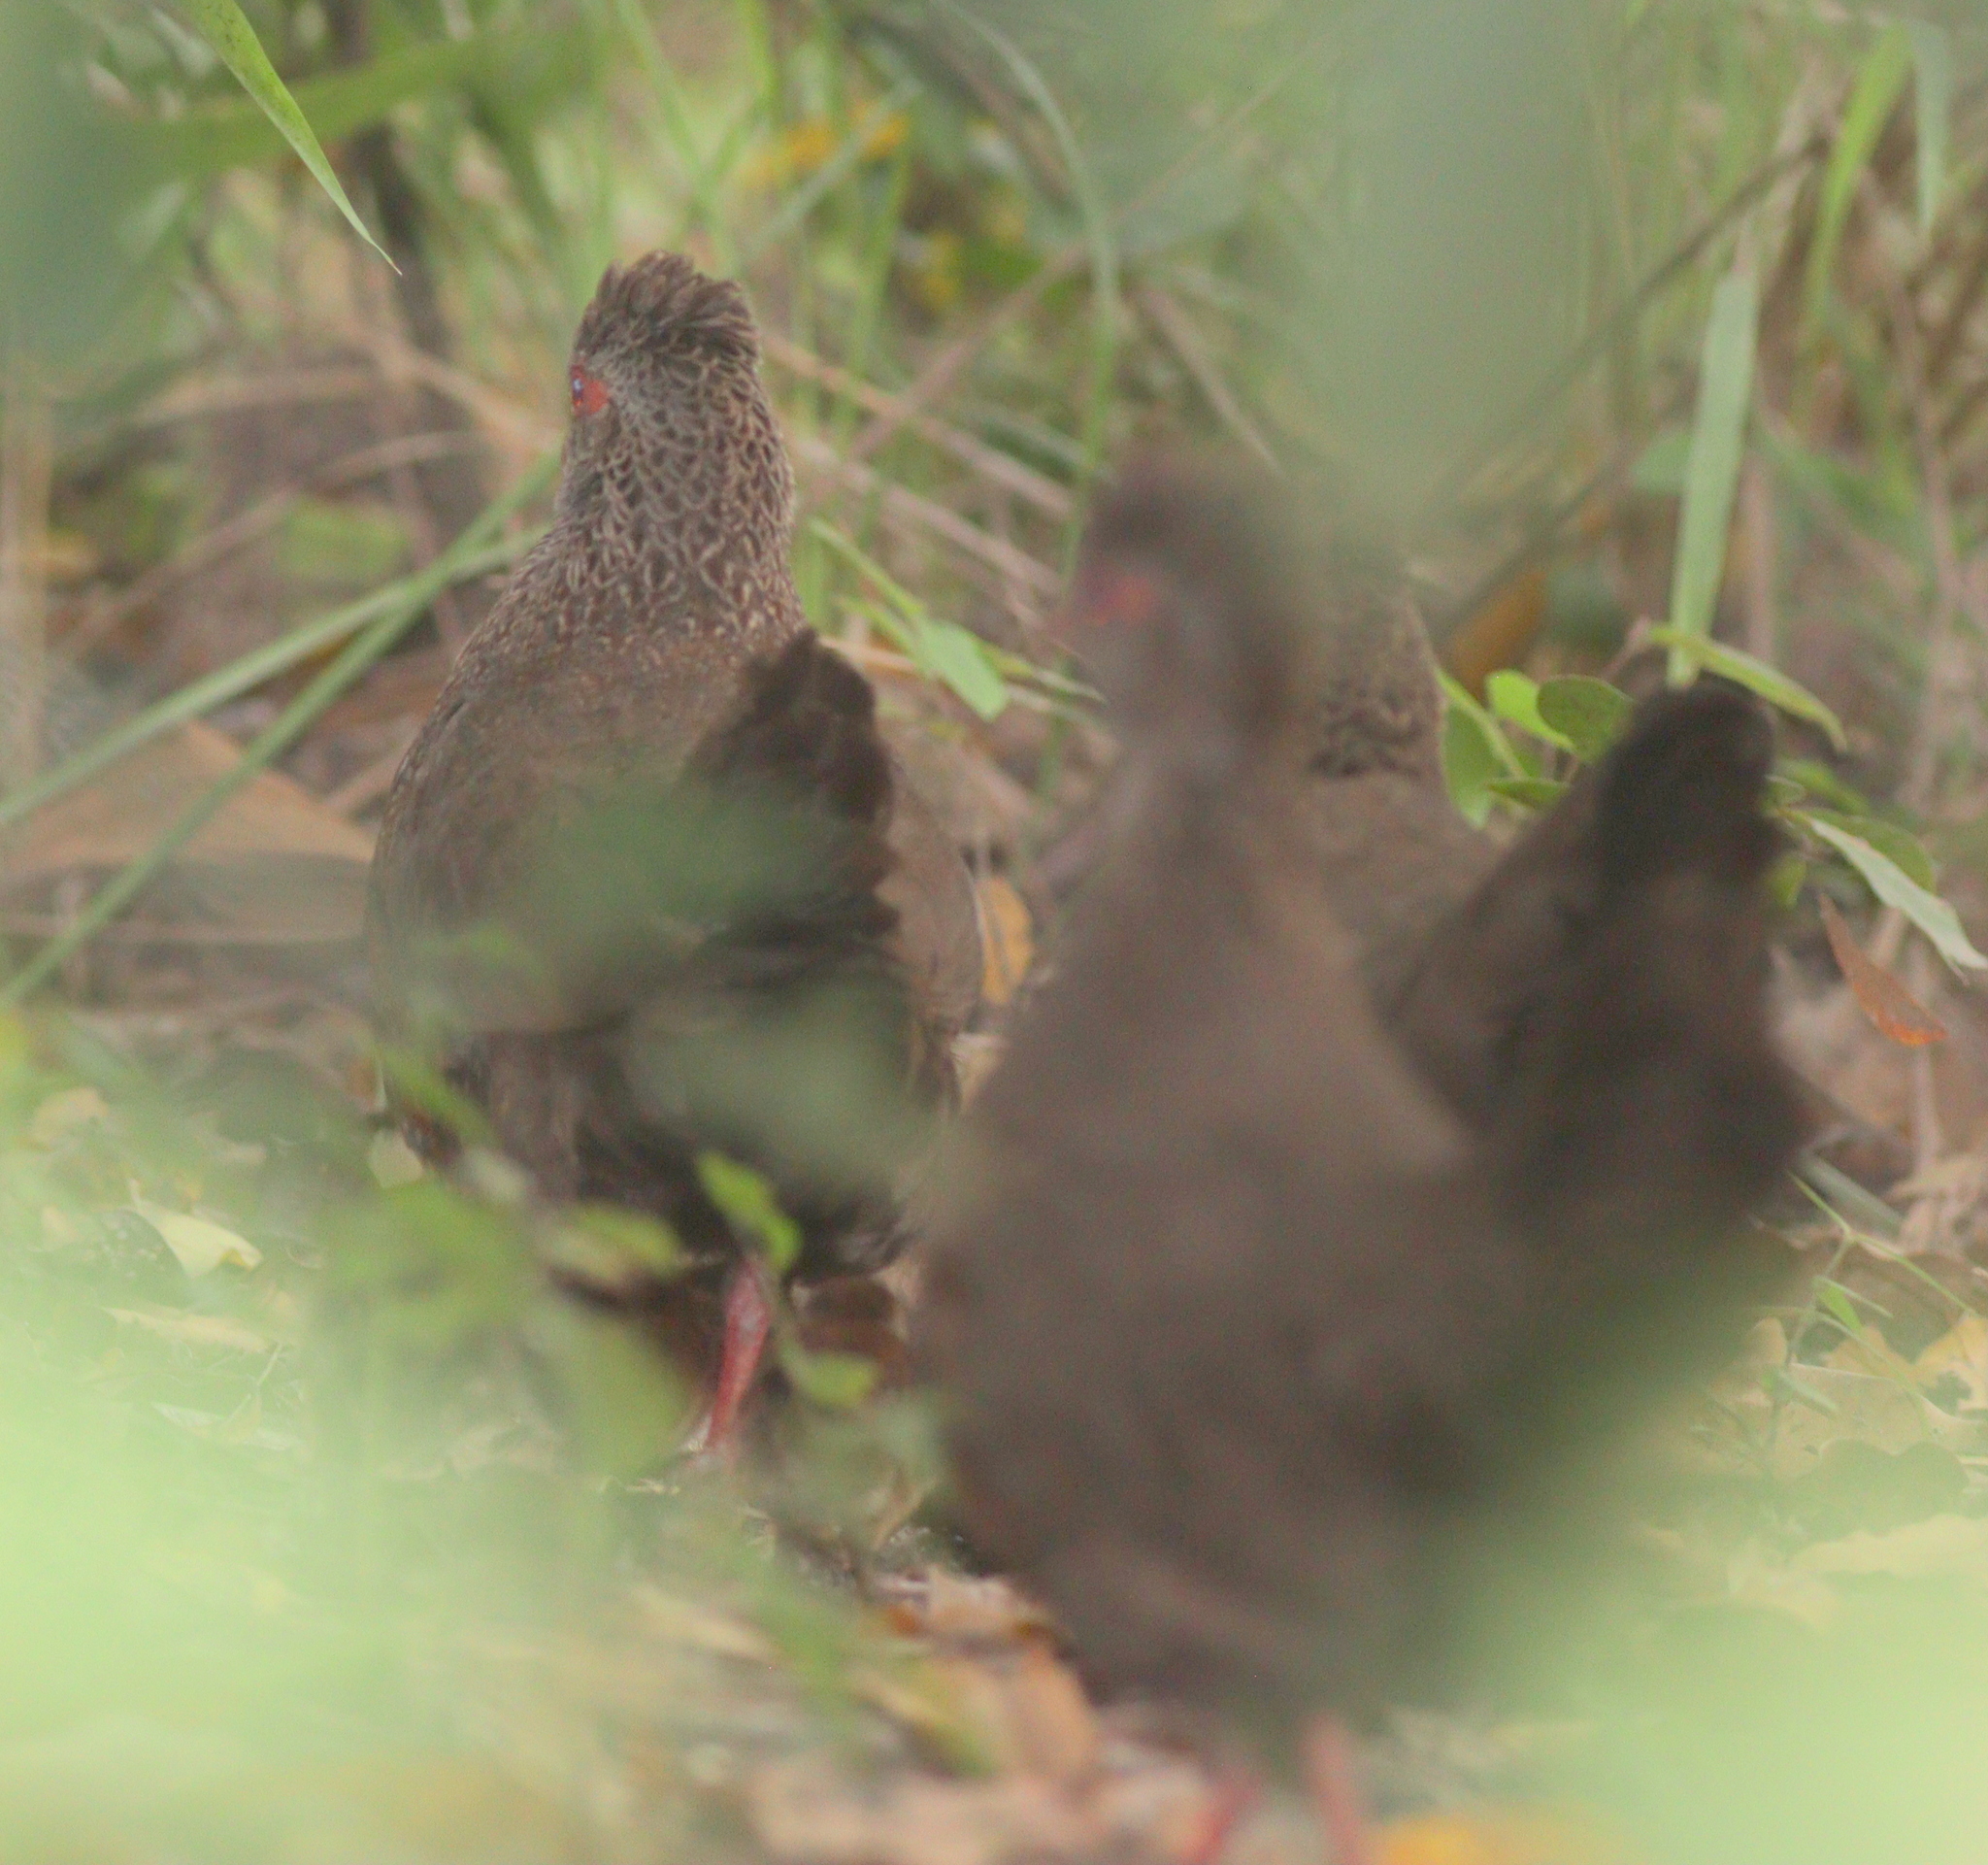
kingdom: Animalia
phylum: Chordata
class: Aves
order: Galliformes
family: Odontophoridae
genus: Ptilopachus
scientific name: Ptilopachus petrosus
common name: Stone partridge
